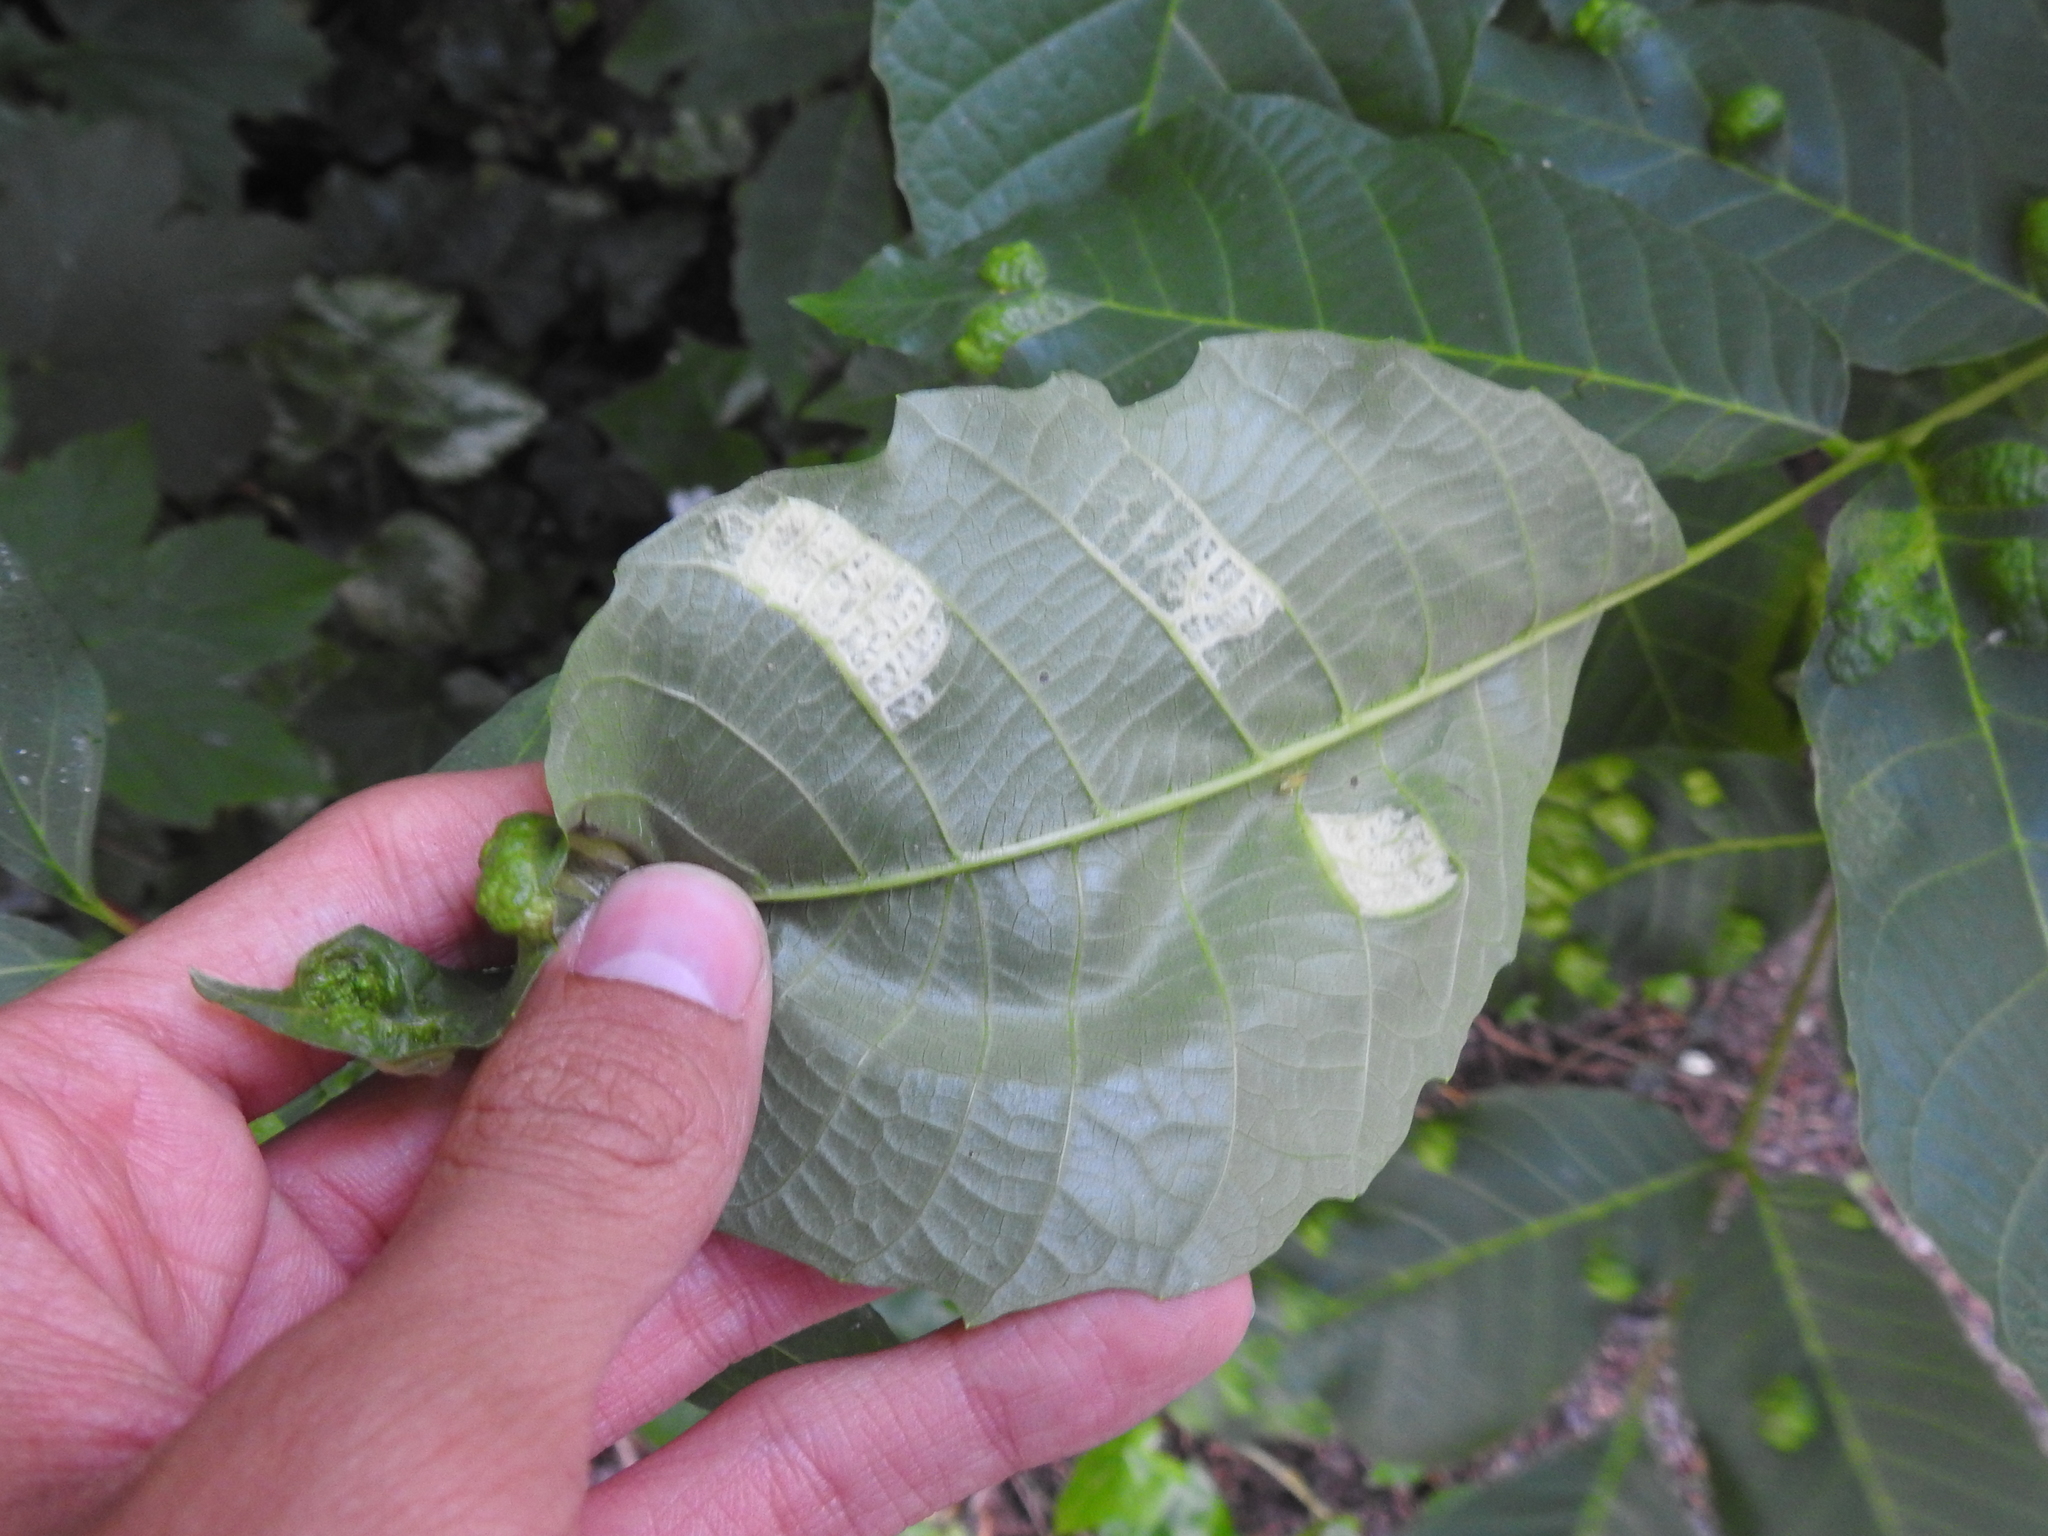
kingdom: Animalia
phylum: Arthropoda
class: Arachnida
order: Trombidiformes
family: Eriophyidae
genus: Aceria
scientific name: Aceria erinea
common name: Persian walnut erineum mite
